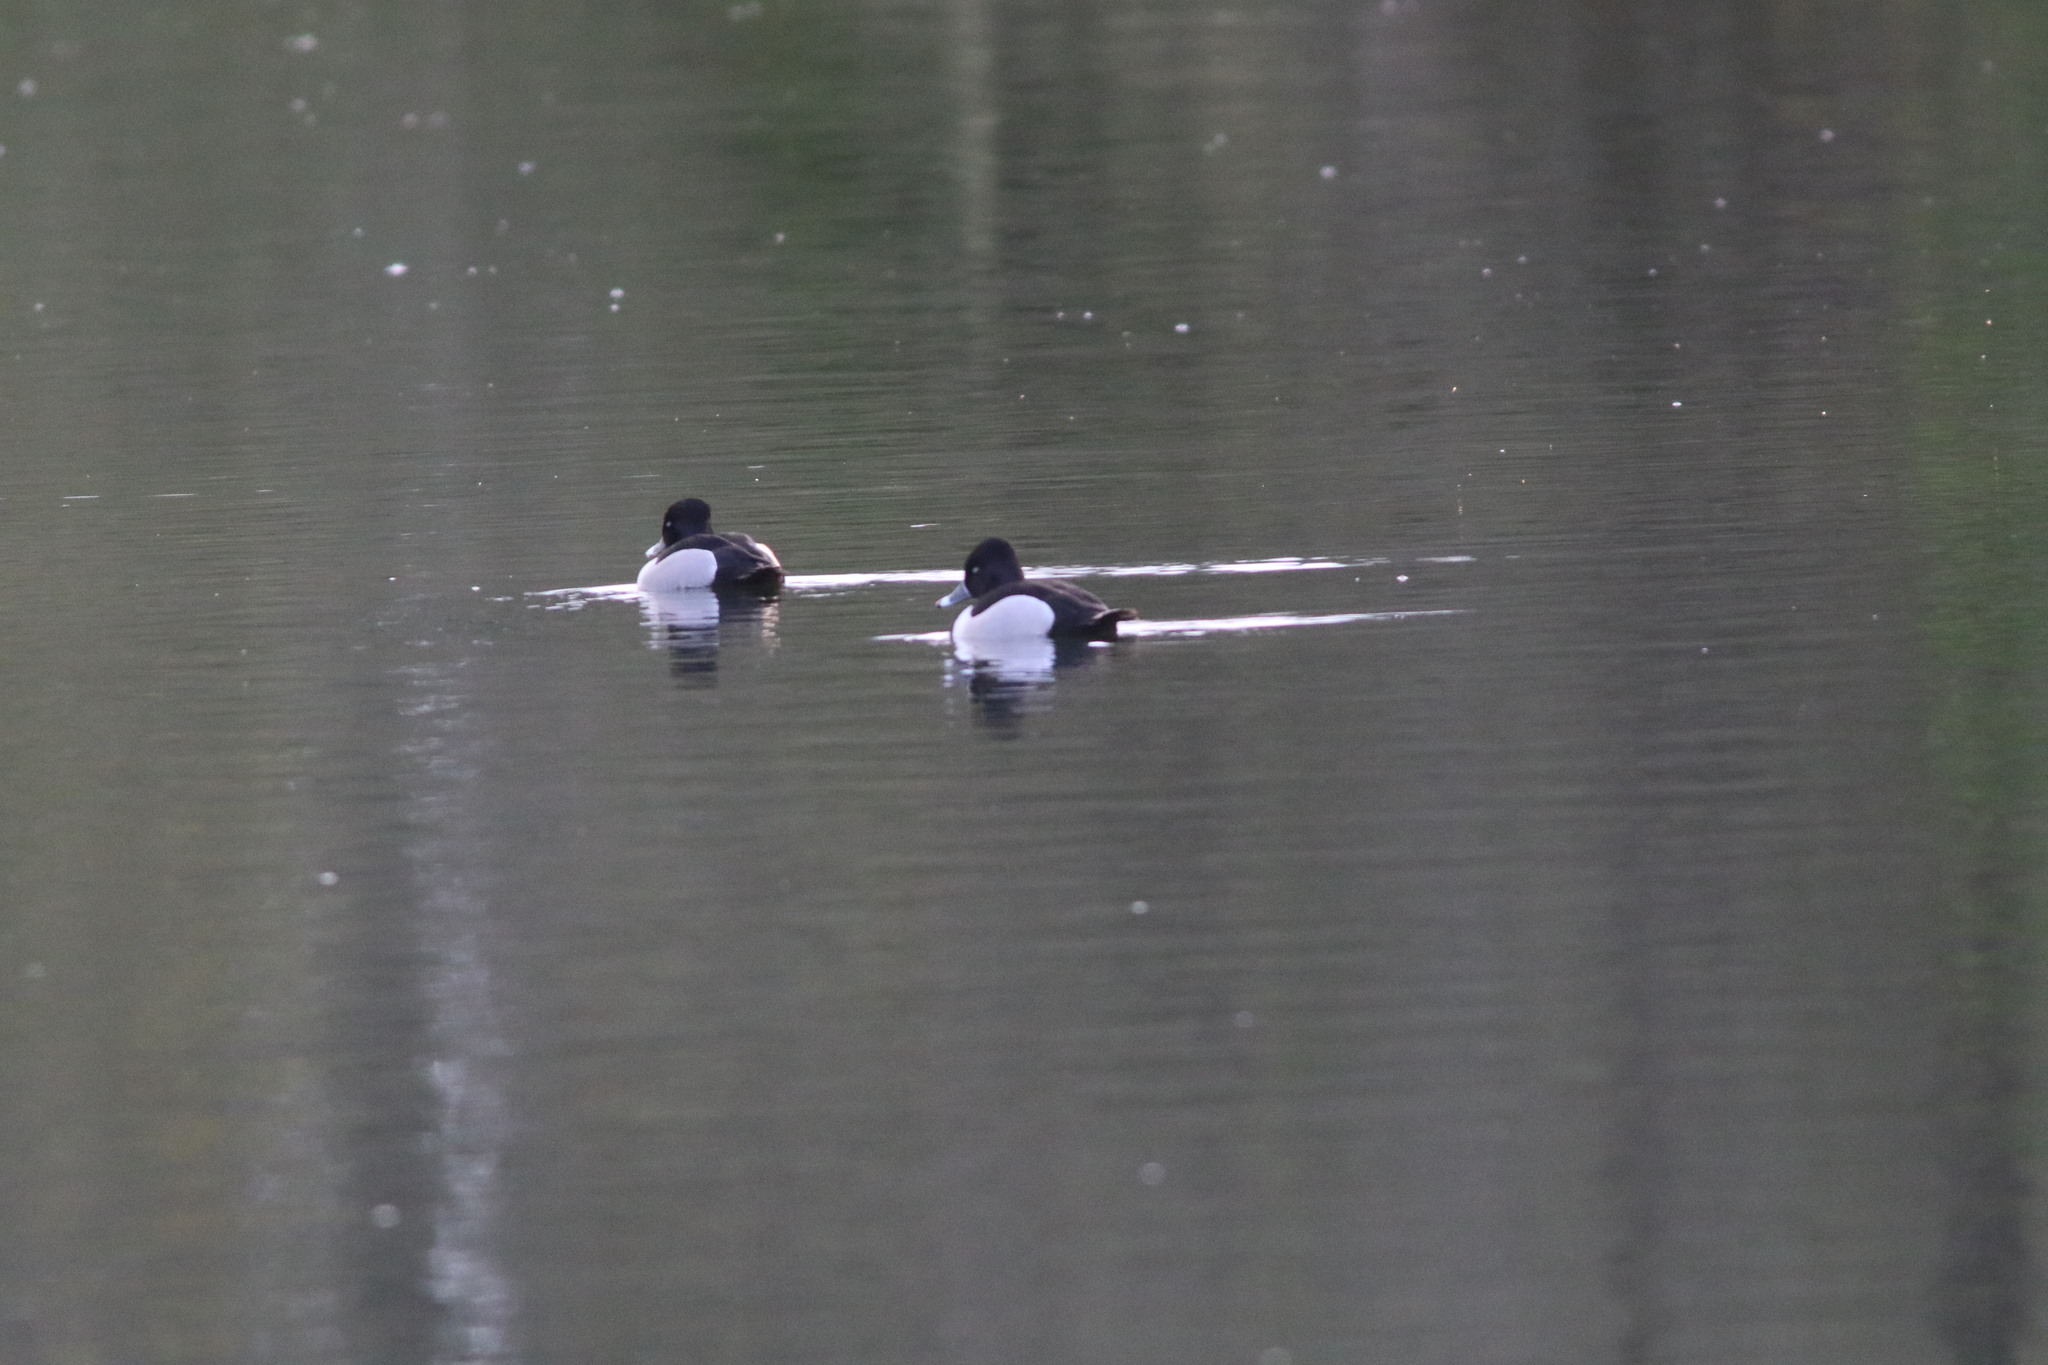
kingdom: Animalia
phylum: Chordata
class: Aves
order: Anseriformes
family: Anatidae
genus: Aythya
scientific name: Aythya collaris
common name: Ring-necked duck
